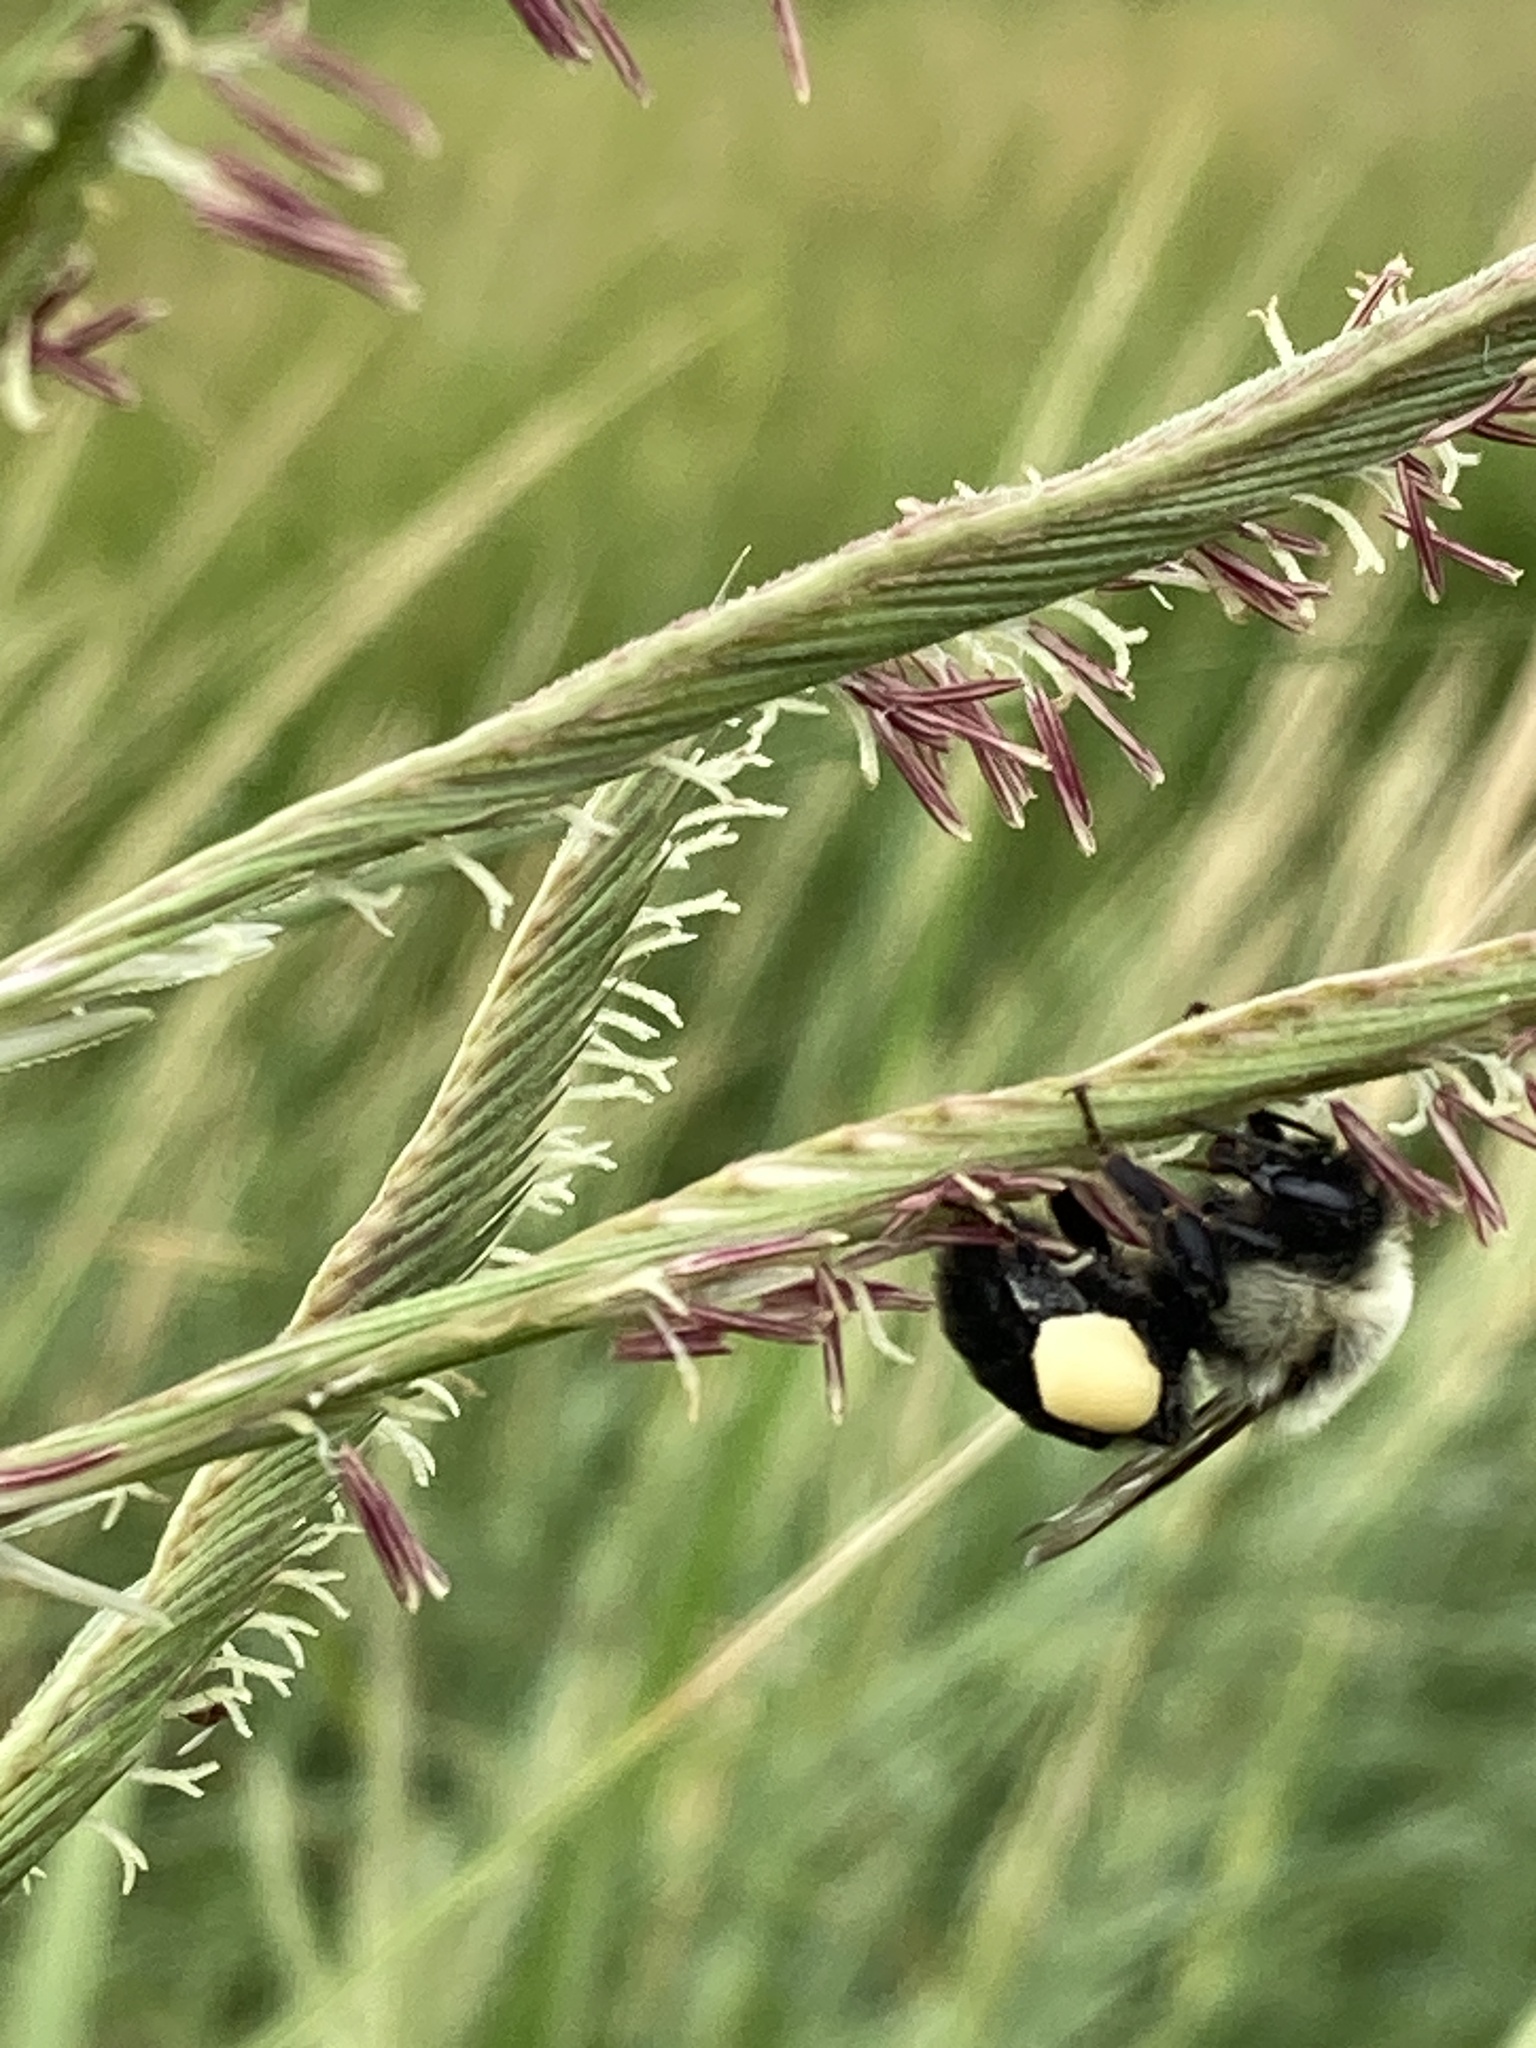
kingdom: Animalia
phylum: Arthropoda
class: Insecta
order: Hymenoptera
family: Apidae
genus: Bombus
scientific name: Bombus impatiens
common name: Common eastern bumble bee
